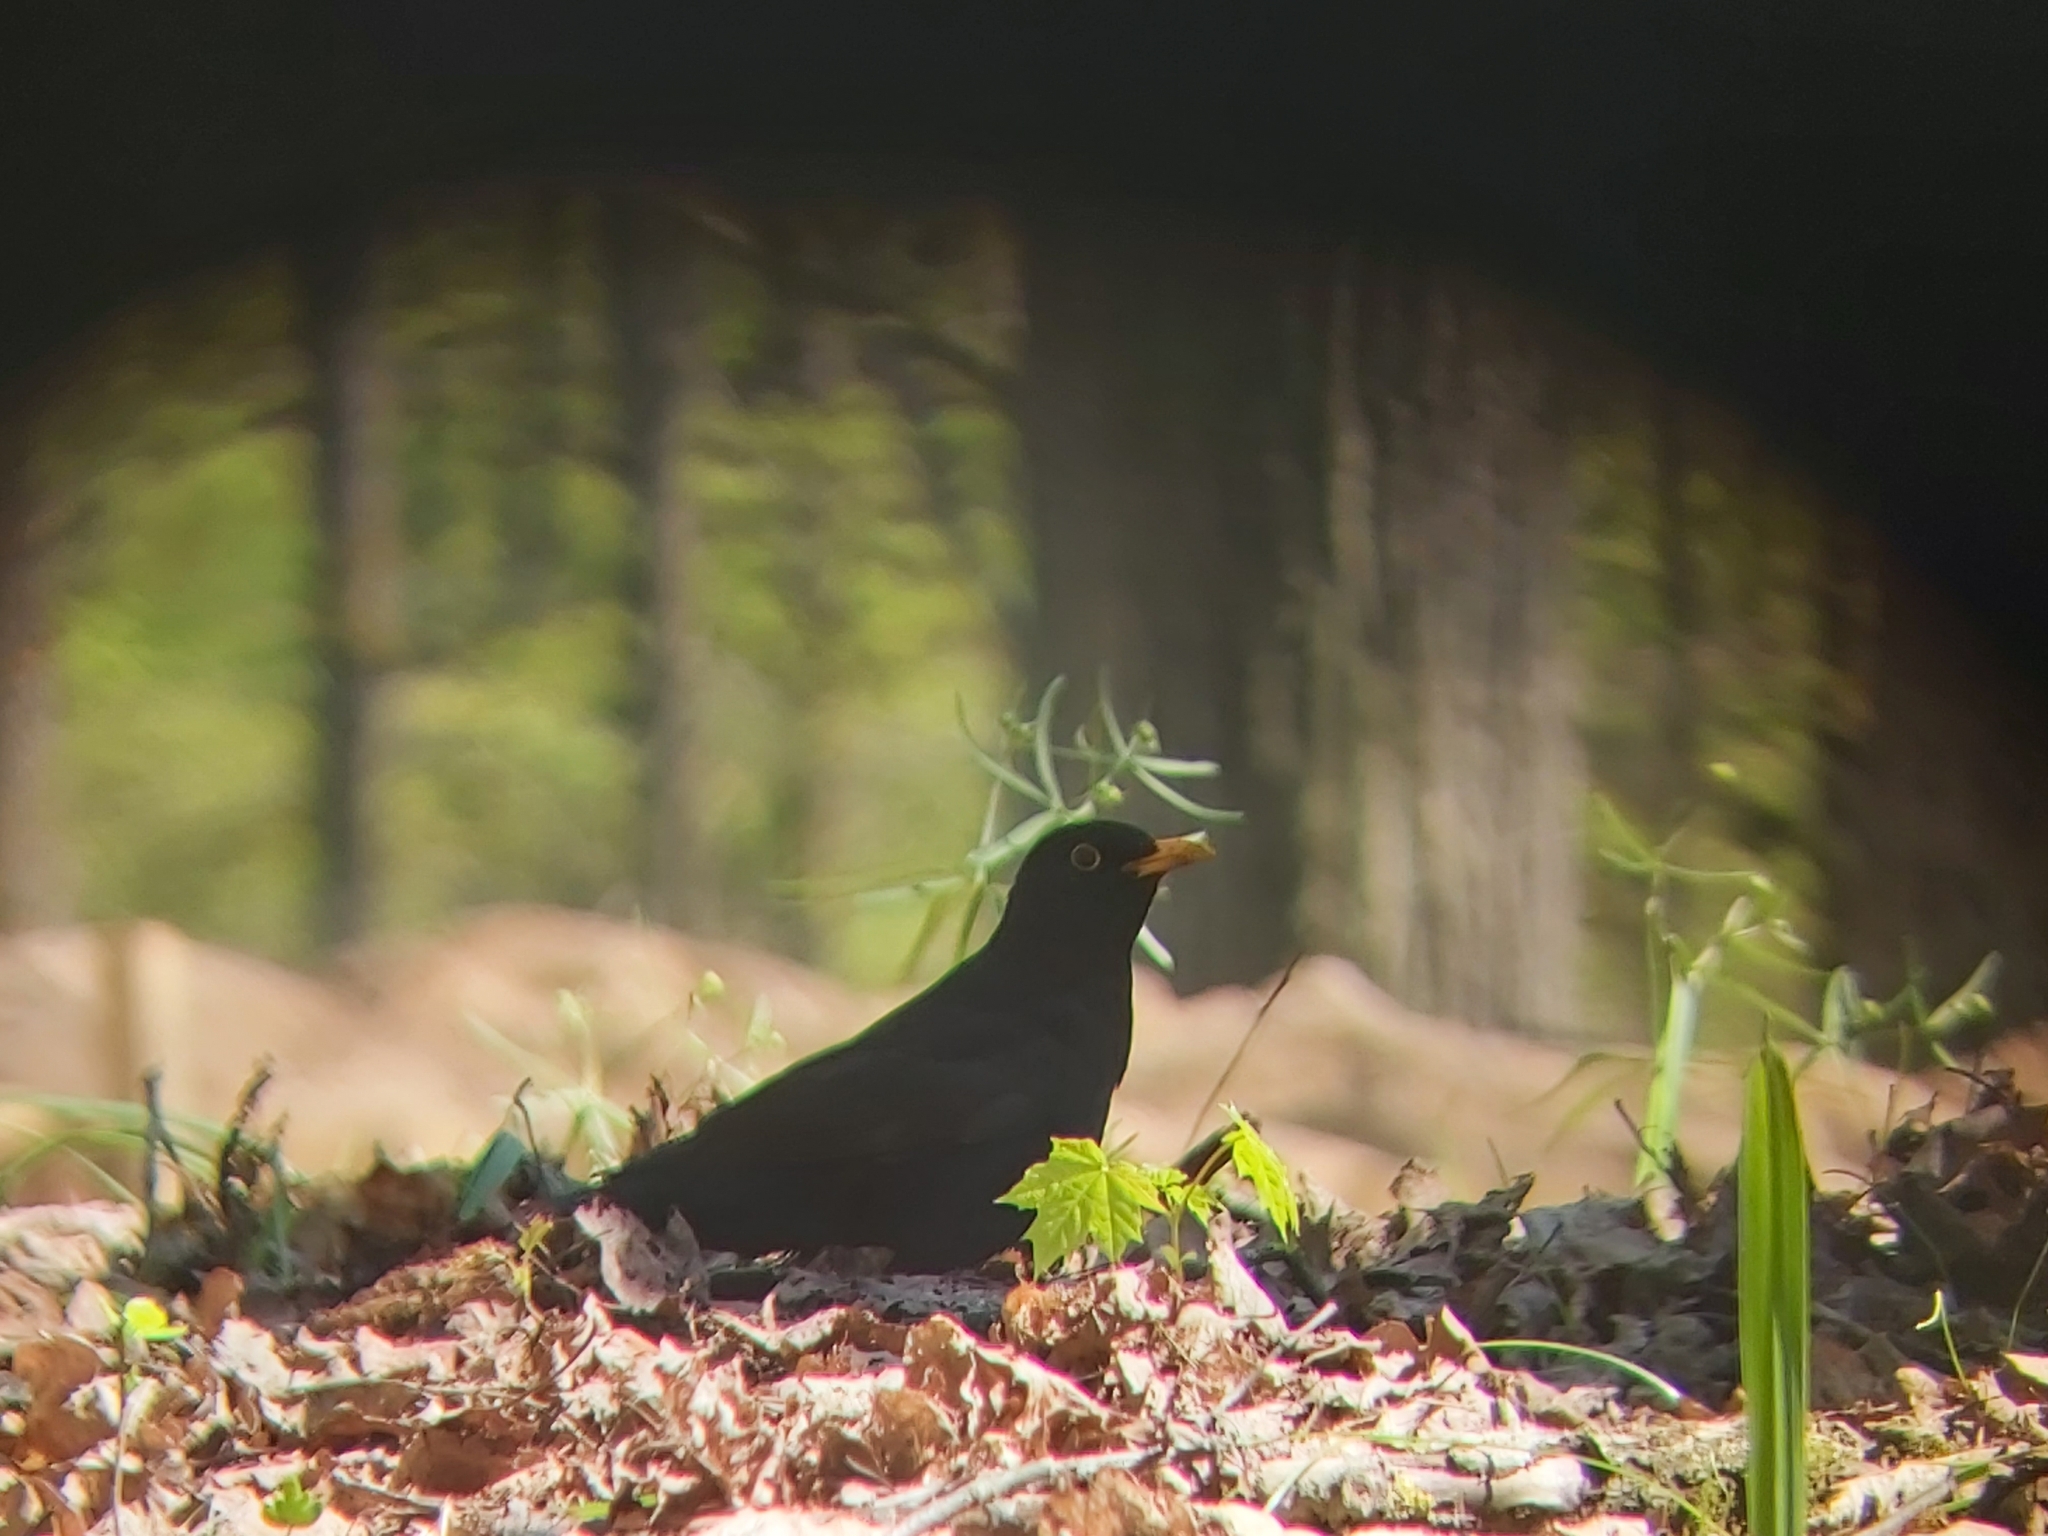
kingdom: Animalia
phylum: Chordata
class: Aves
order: Passeriformes
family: Turdidae
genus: Turdus
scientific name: Turdus merula
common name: Common blackbird
